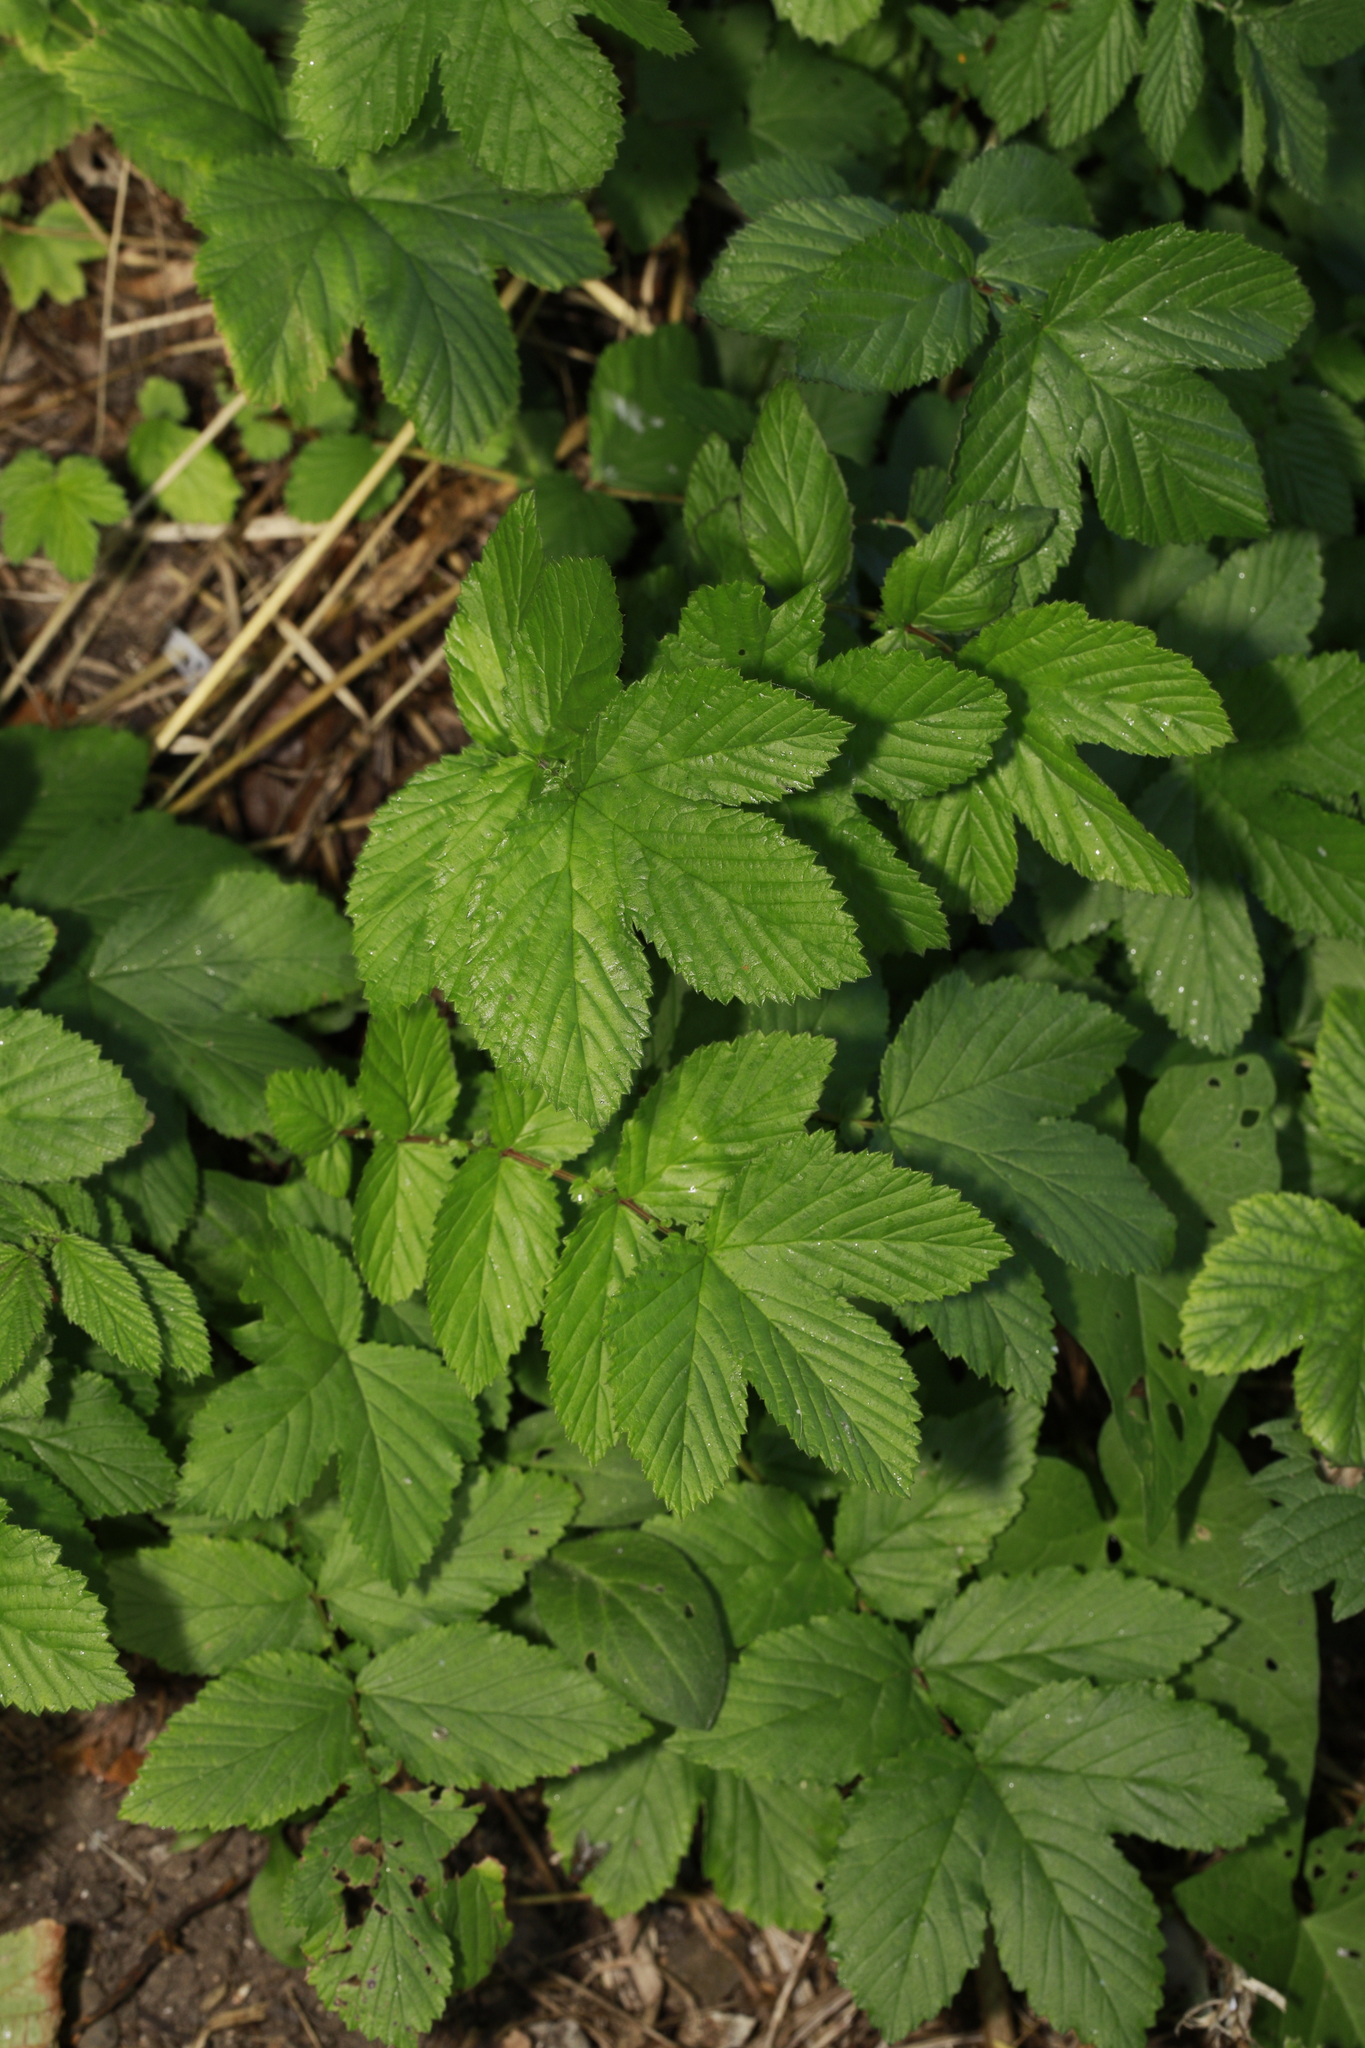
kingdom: Plantae
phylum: Tracheophyta
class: Magnoliopsida
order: Rosales
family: Rosaceae
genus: Filipendula
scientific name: Filipendula ulmaria
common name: Meadowsweet
